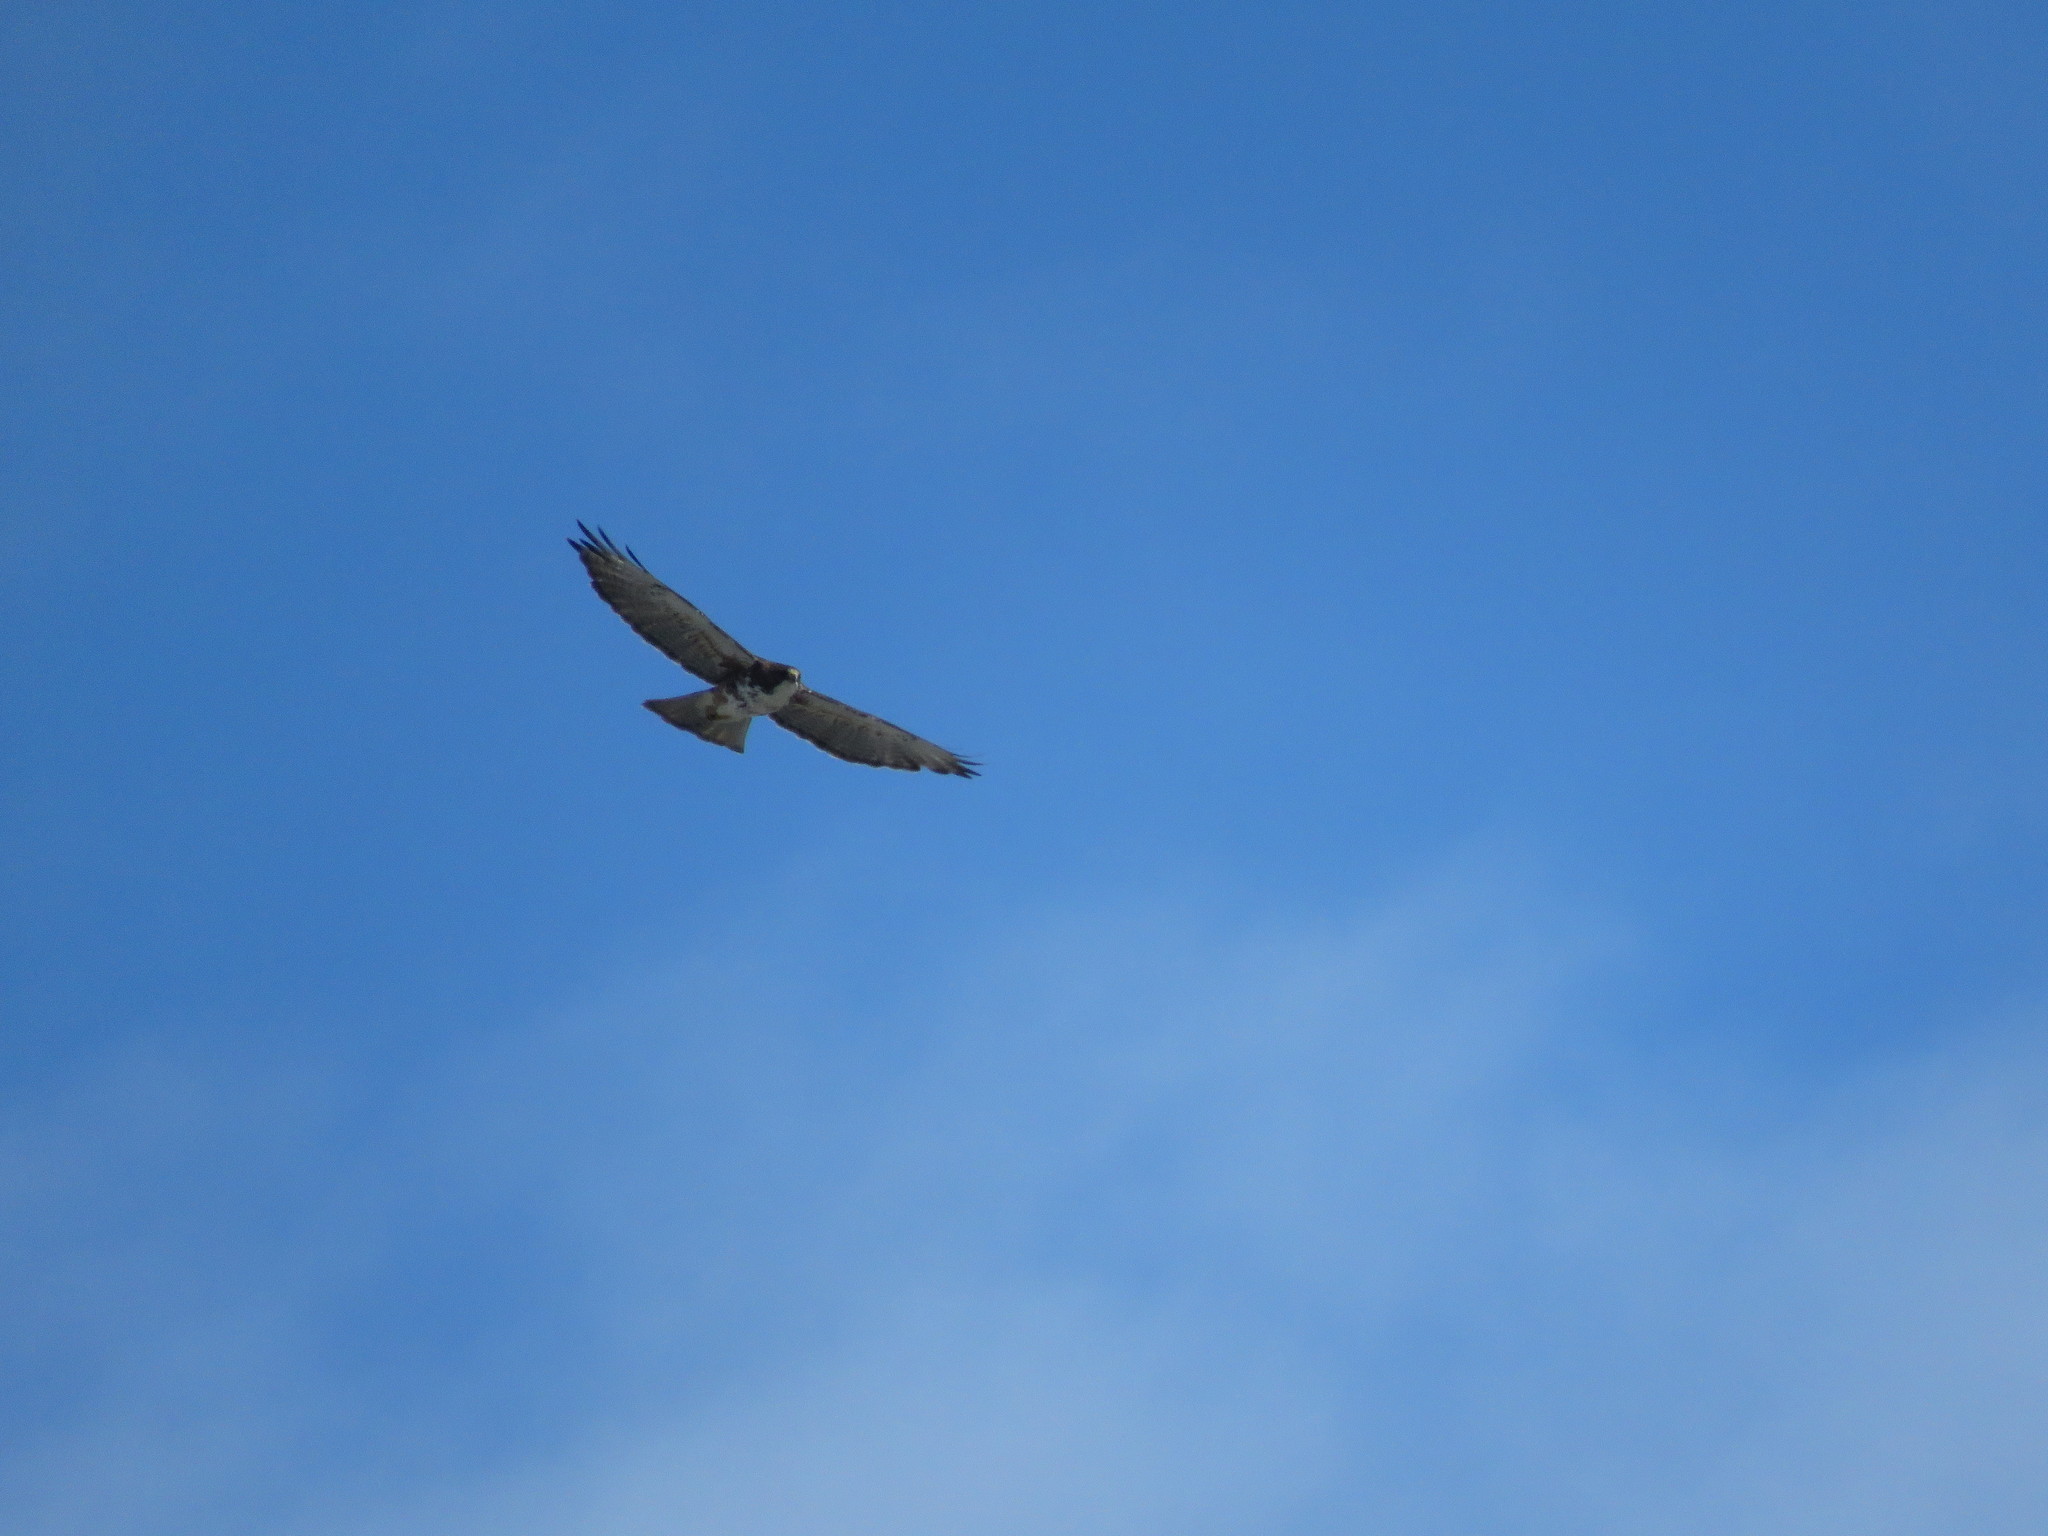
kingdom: Animalia
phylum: Chordata
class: Aves
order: Accipitriformes
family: Accipitridae
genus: Buteo
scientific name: Buteo albigula
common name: White-throated hawk
